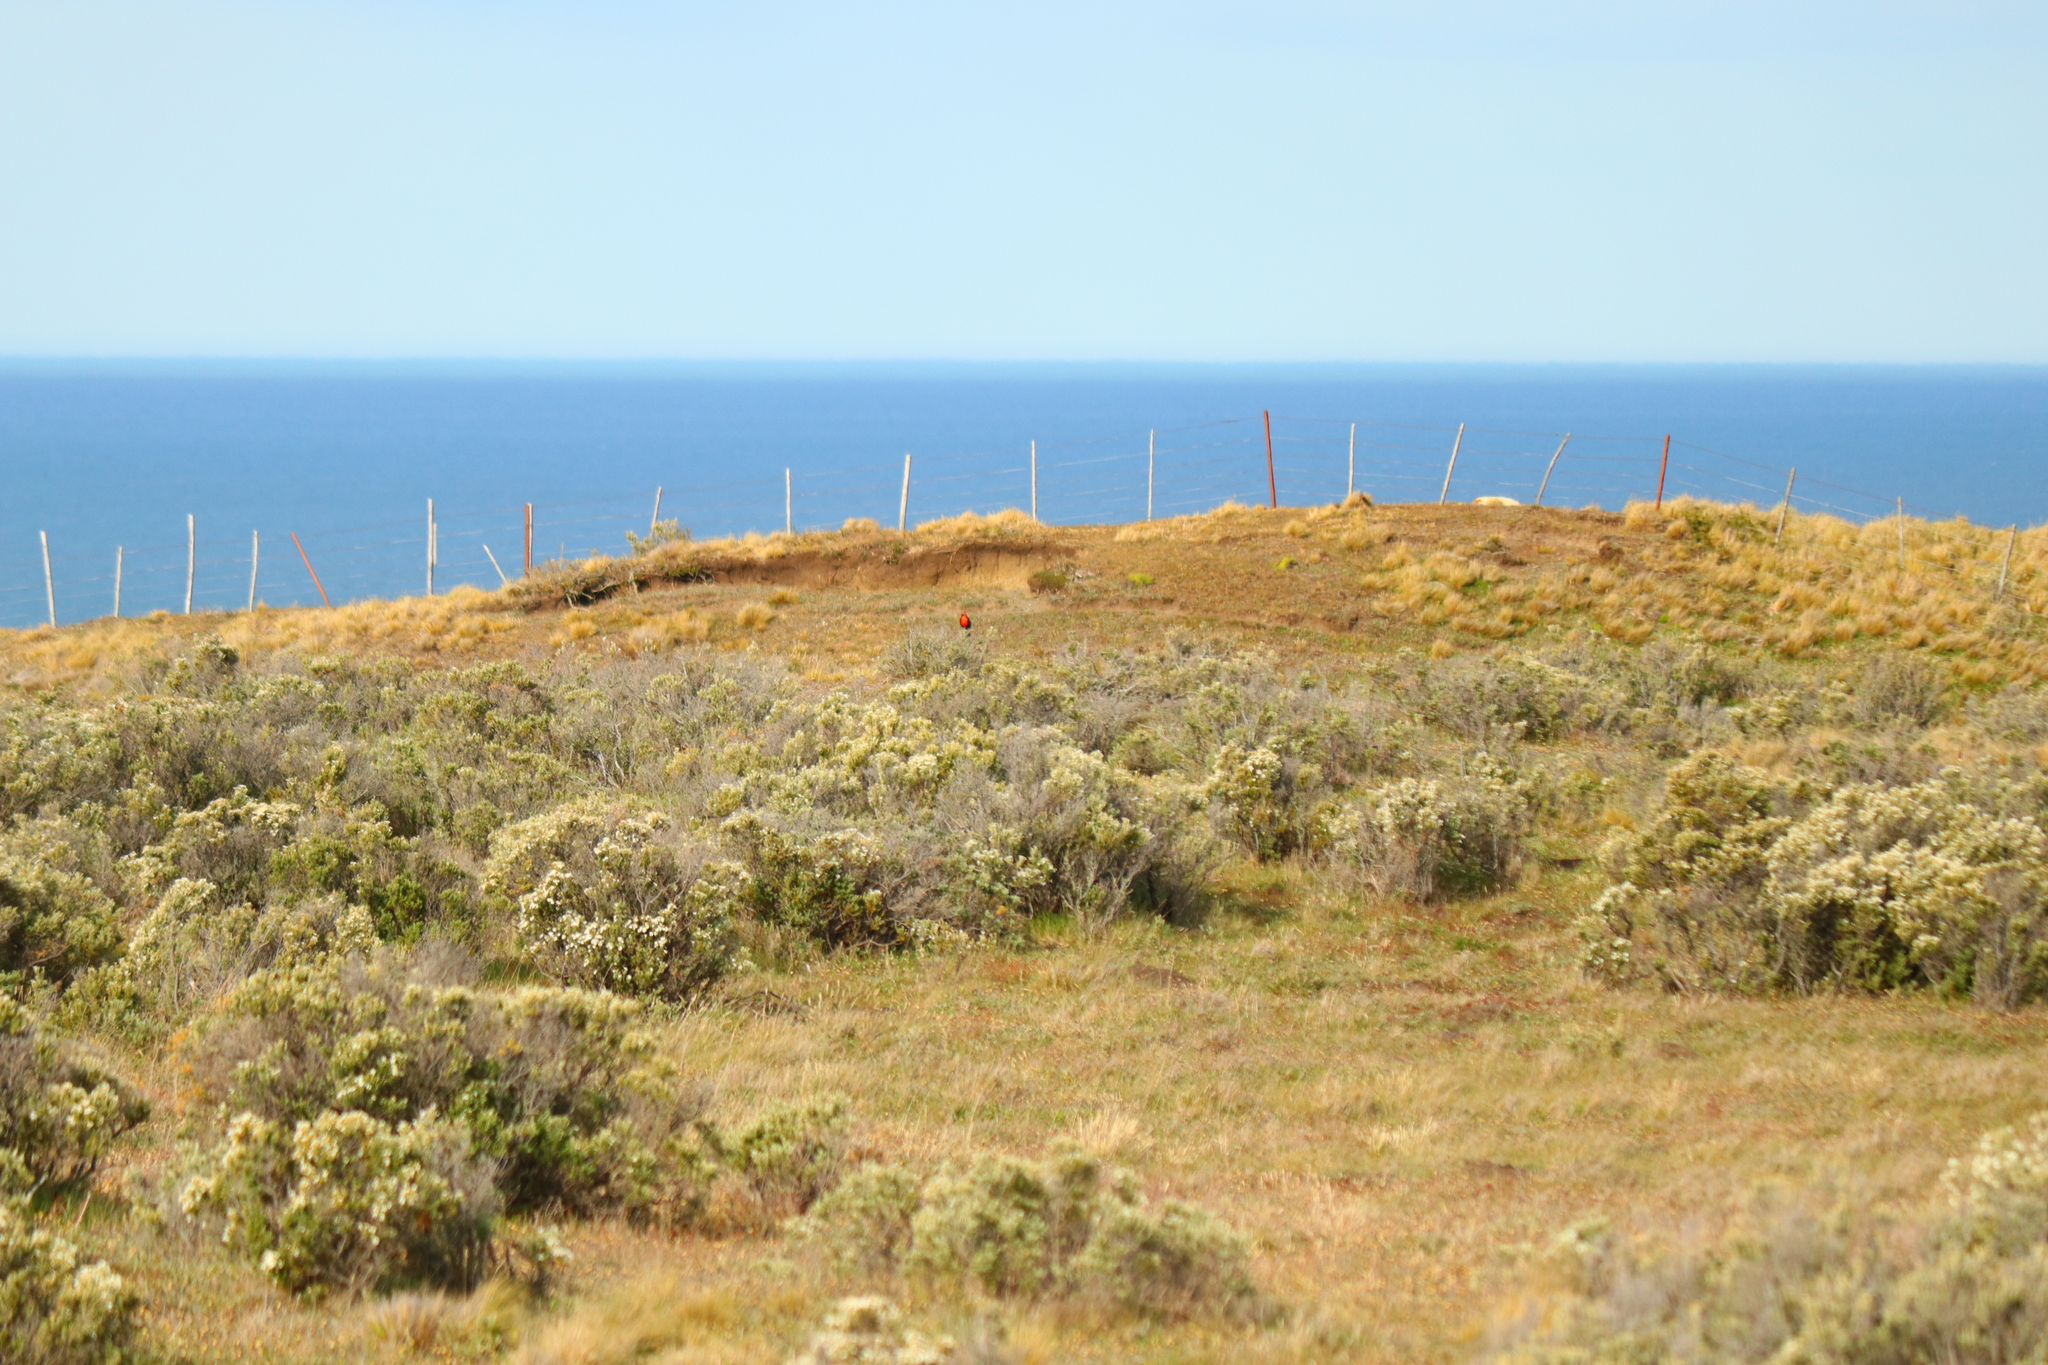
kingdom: Animalia
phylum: Chordata
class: Aves
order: Passeriformes
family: Icteridae
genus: Sturnella
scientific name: Sturnella loyca
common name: Long-tailed meadowlark
